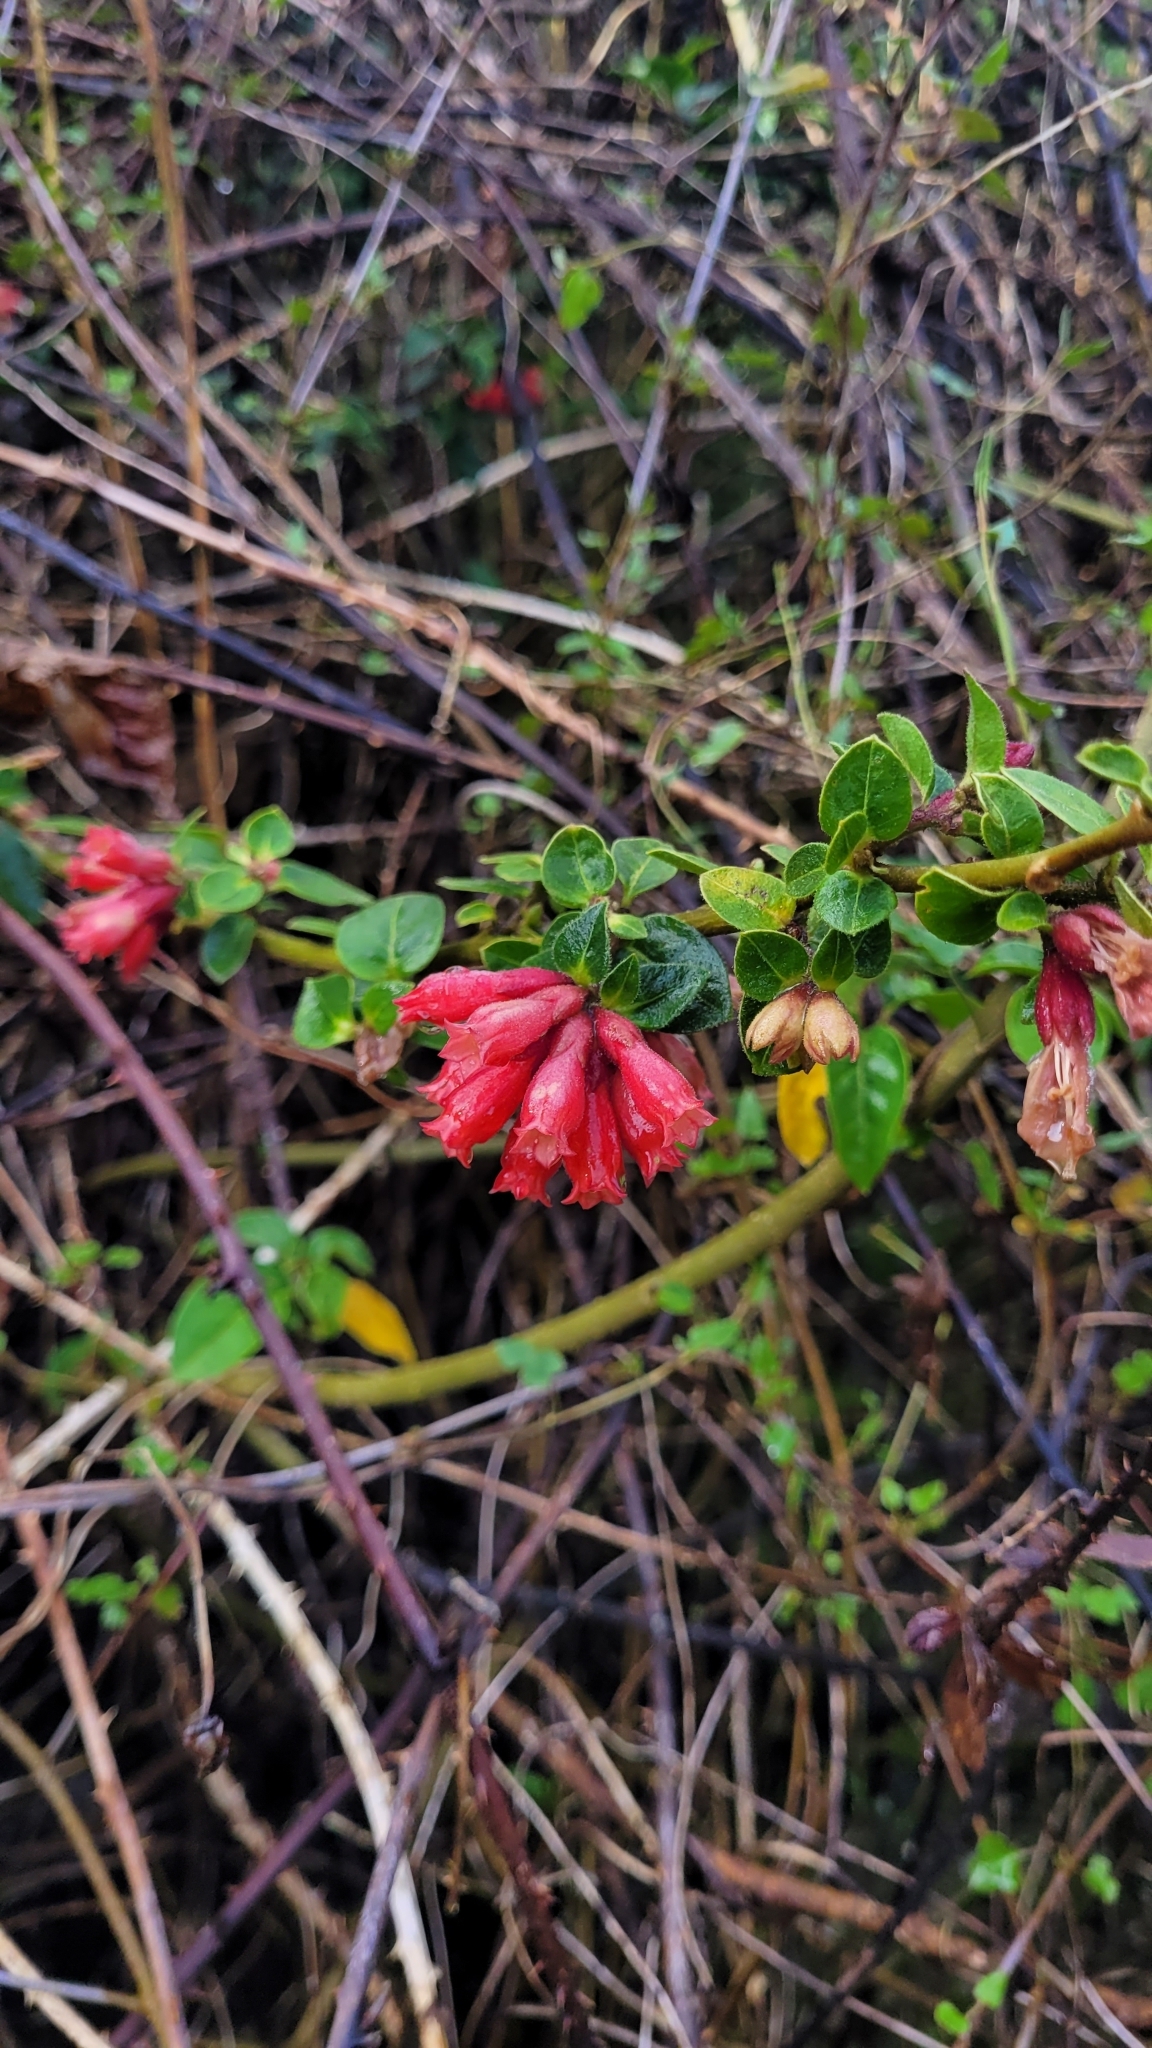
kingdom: Plantae
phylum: Tracheophyta
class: Magnoliopsida
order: Solanales
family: Solanaceae
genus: Cestrum
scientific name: Cestrum fasciculatum
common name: Early jessamine
